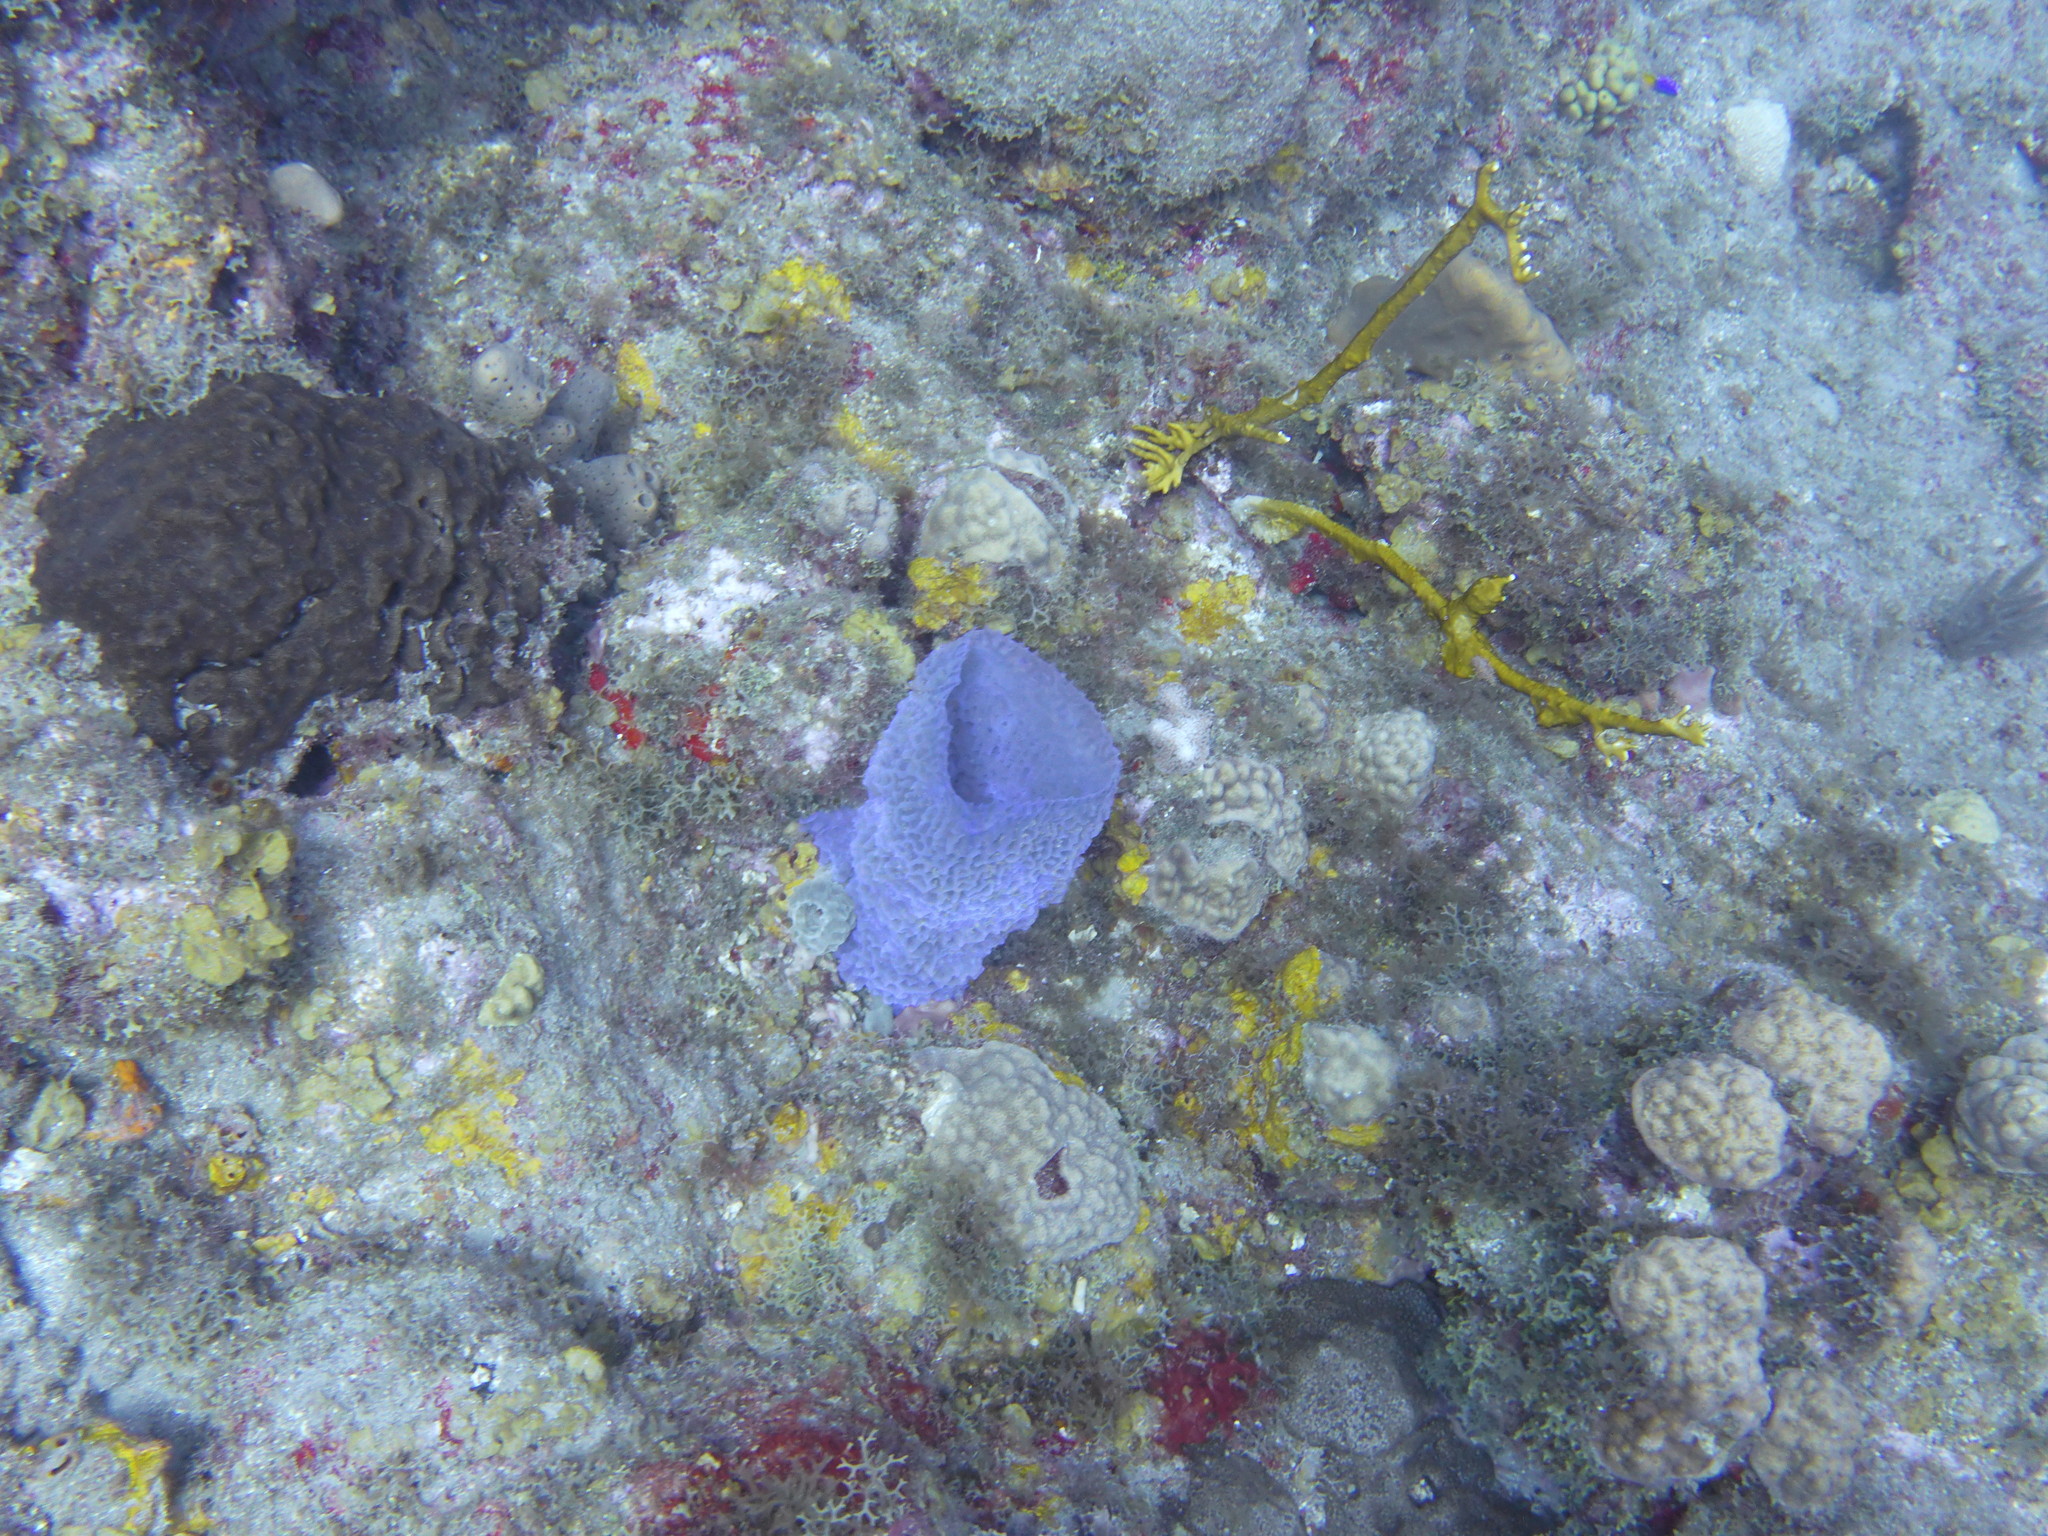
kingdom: Animalia
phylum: Porifera
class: Demospongiae
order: Haplosclerida
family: Callyspongiidae
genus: Callyspongia
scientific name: Callyspongia plicifera
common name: Azure vase sponge
